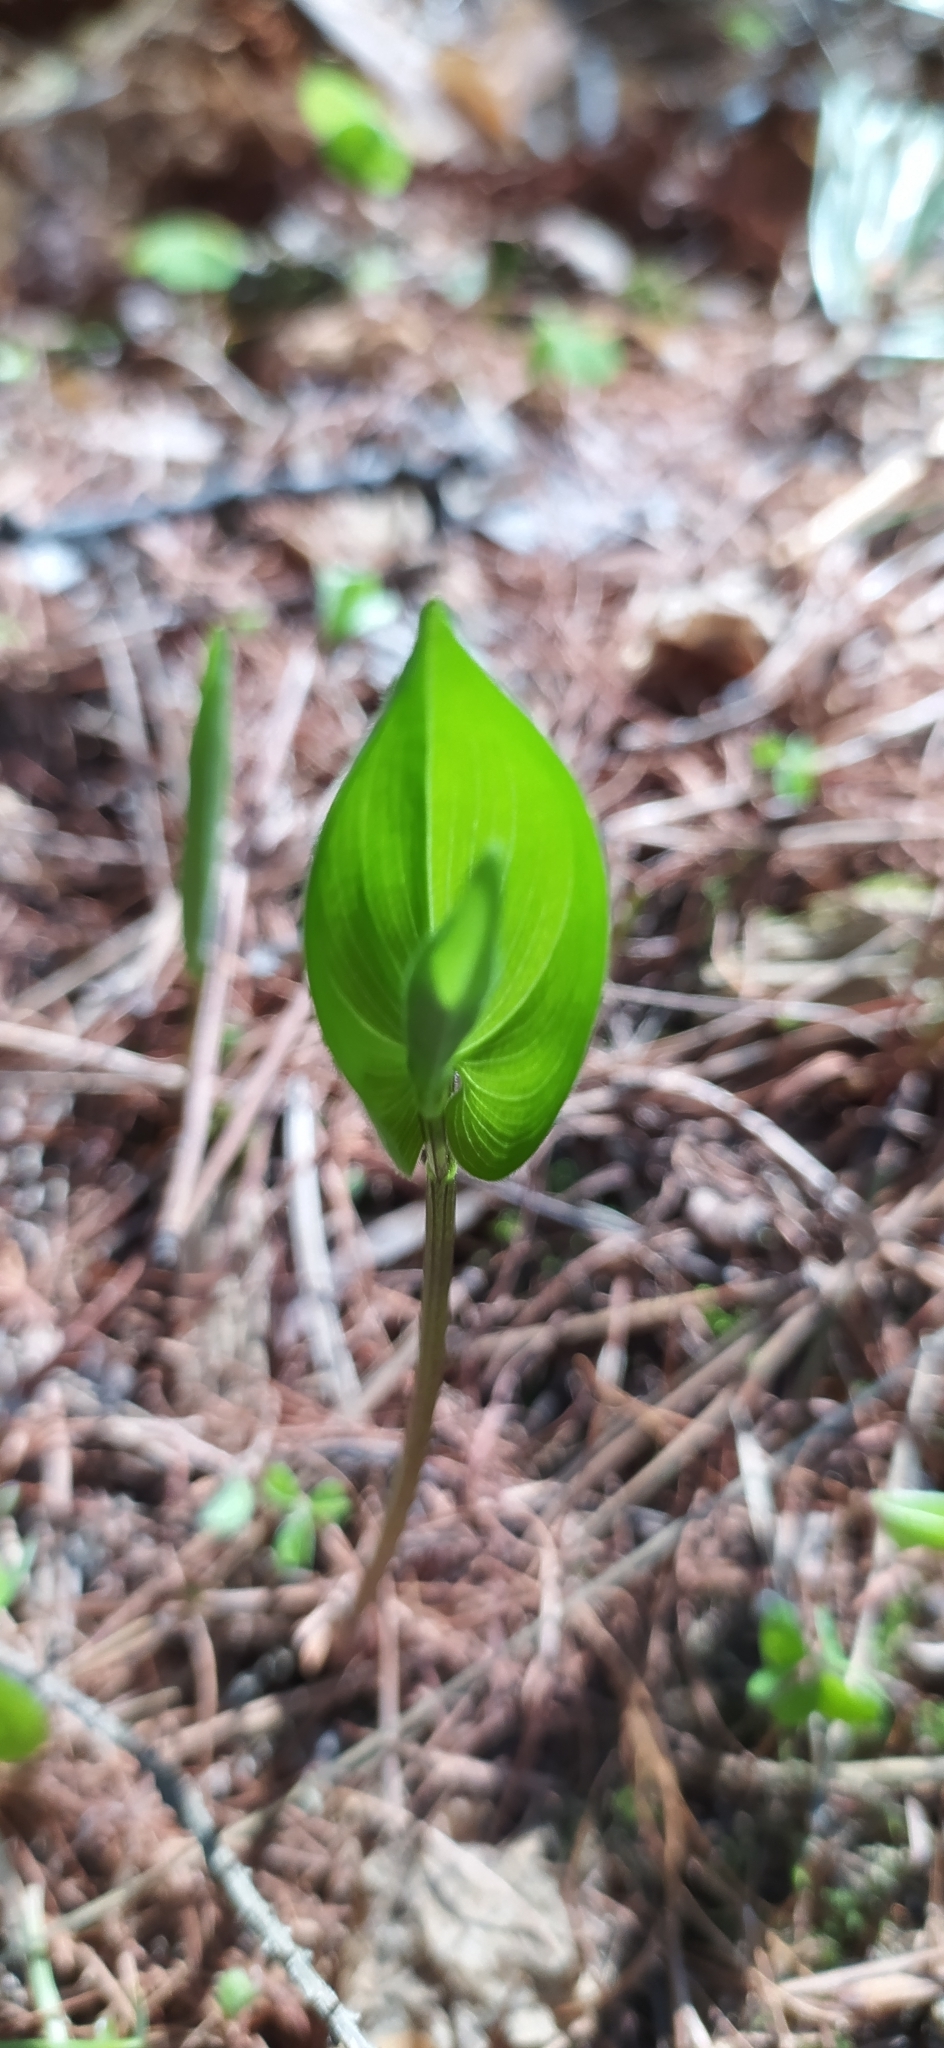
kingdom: Plantae
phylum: Tracheophyta
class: Liliopsida
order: Asparagales
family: Asparagaceae
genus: Maianthemum
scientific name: Maianthemum bifolium
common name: May lily
